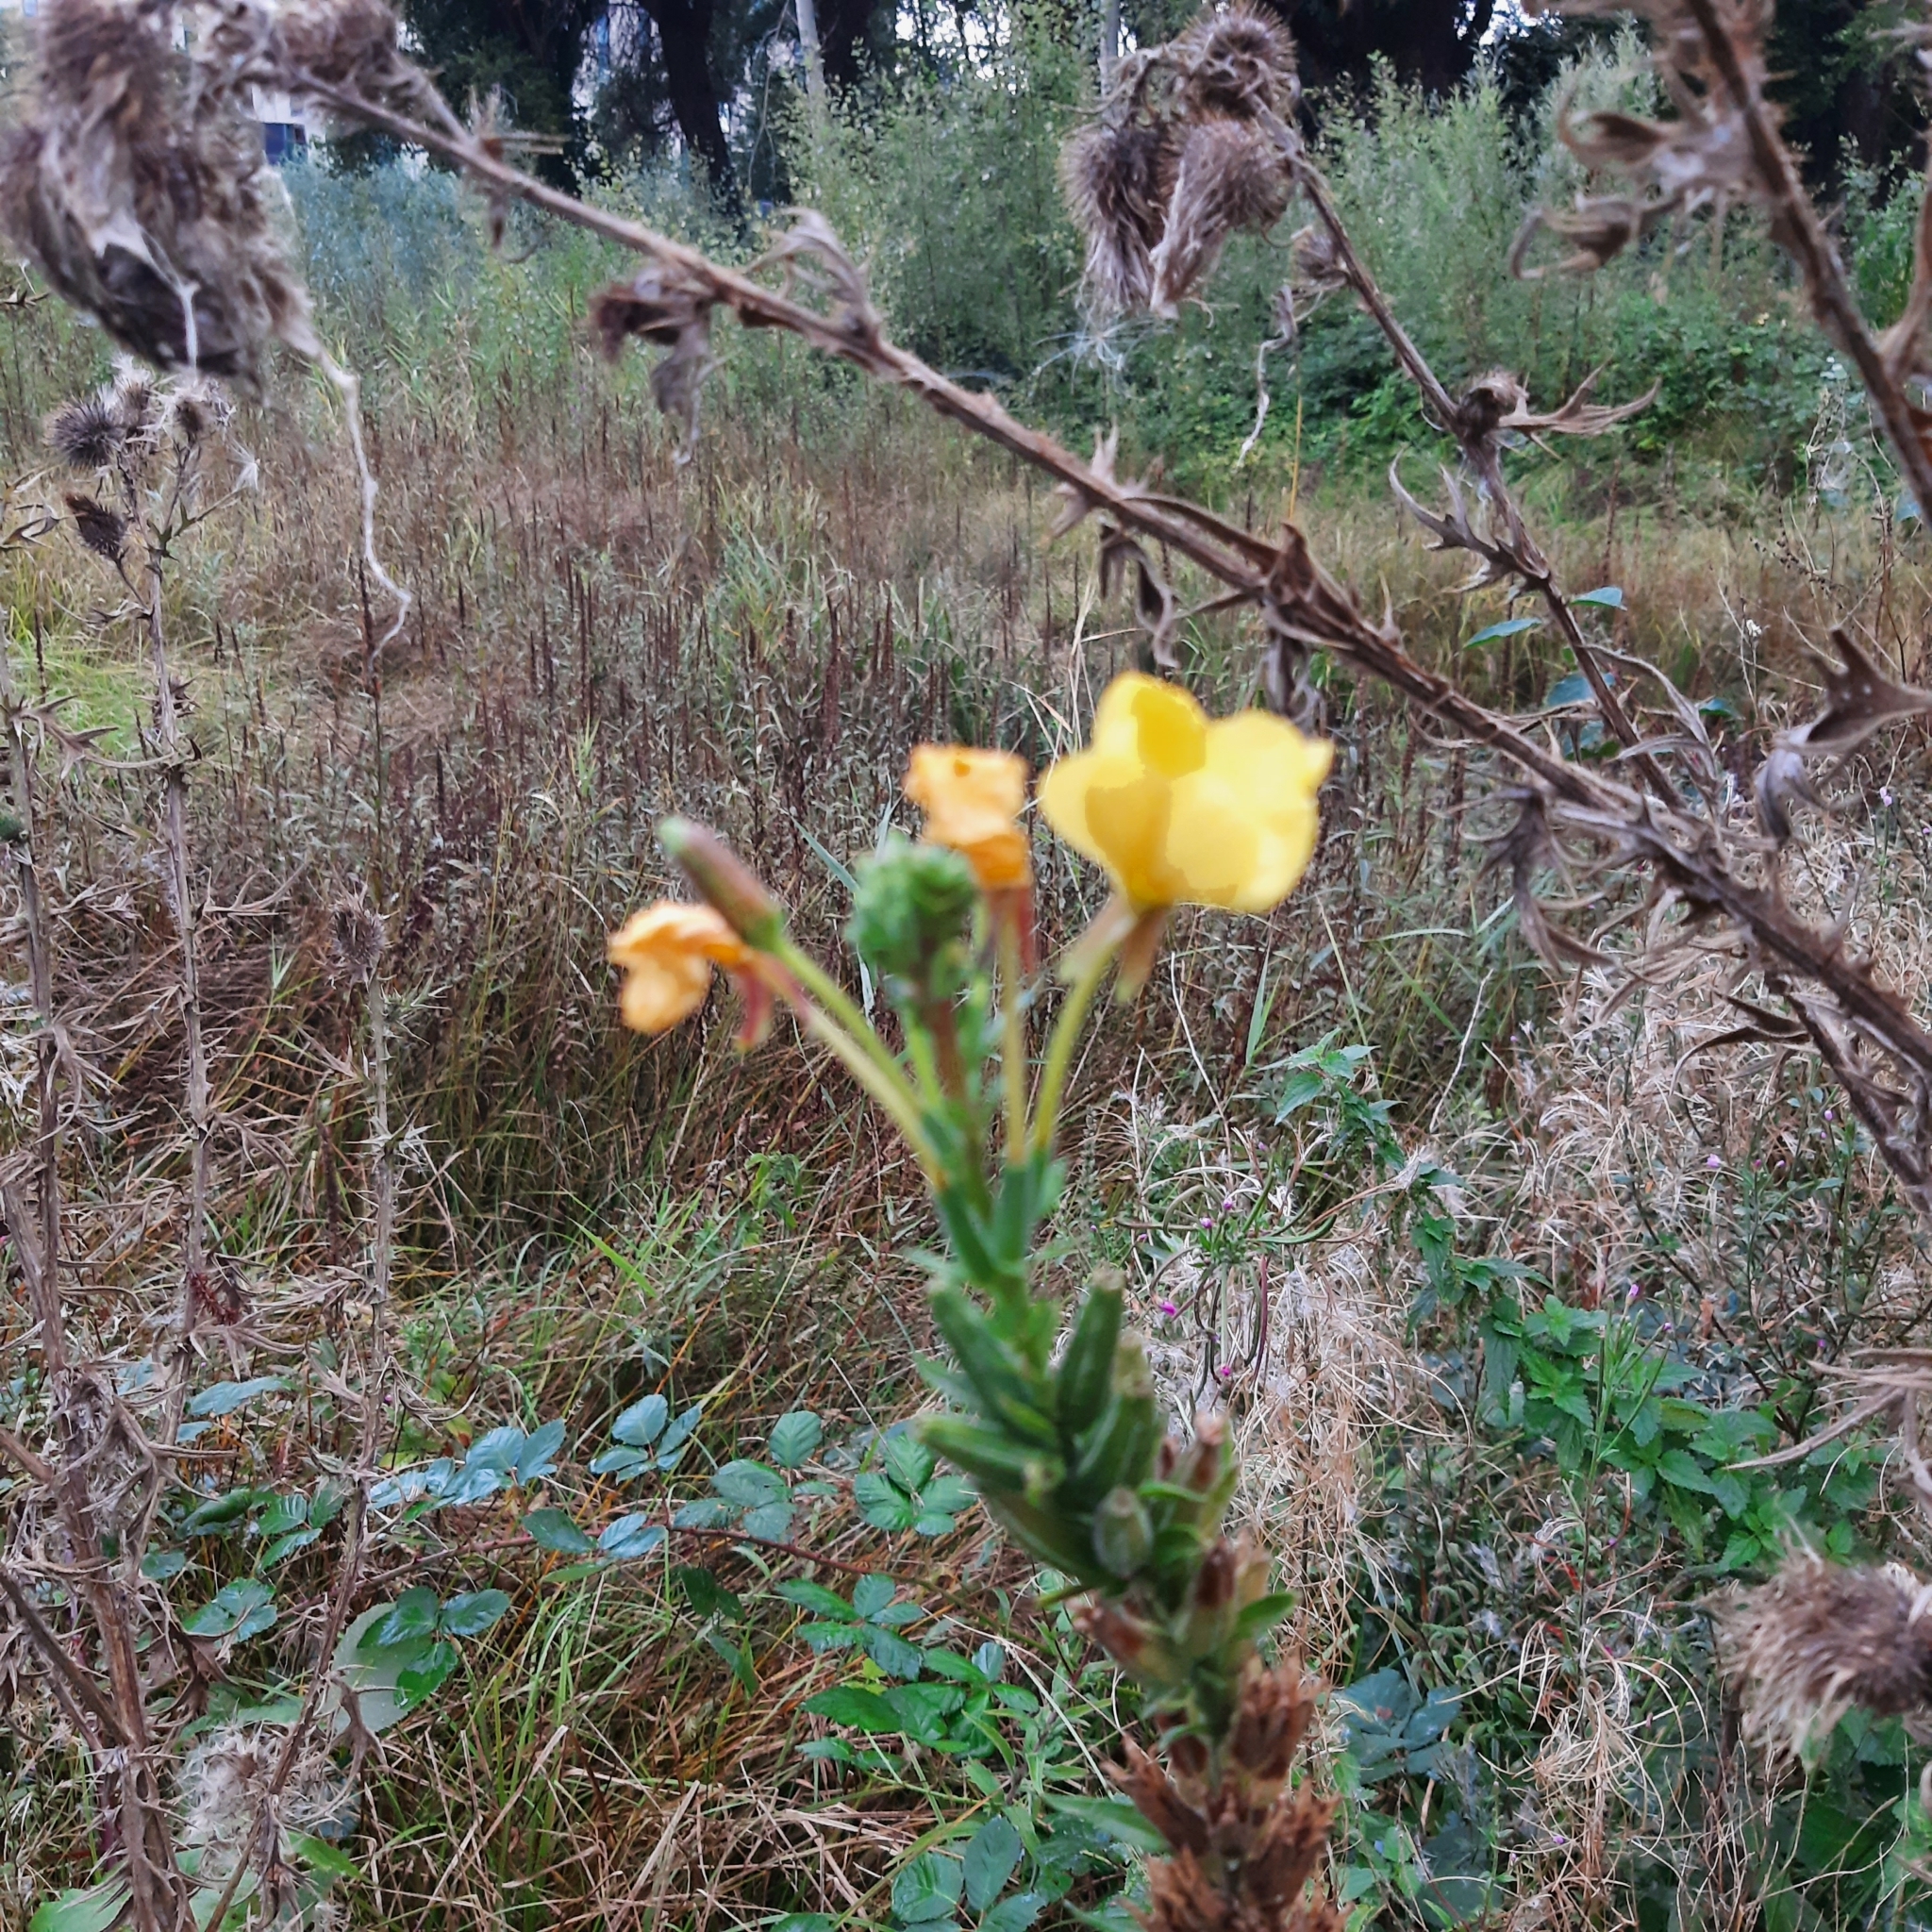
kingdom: Plantae
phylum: Tracheophyta
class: Magnoliopsida
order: Myrtales
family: Onagraceae
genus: Oenothera
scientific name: Oenothera
